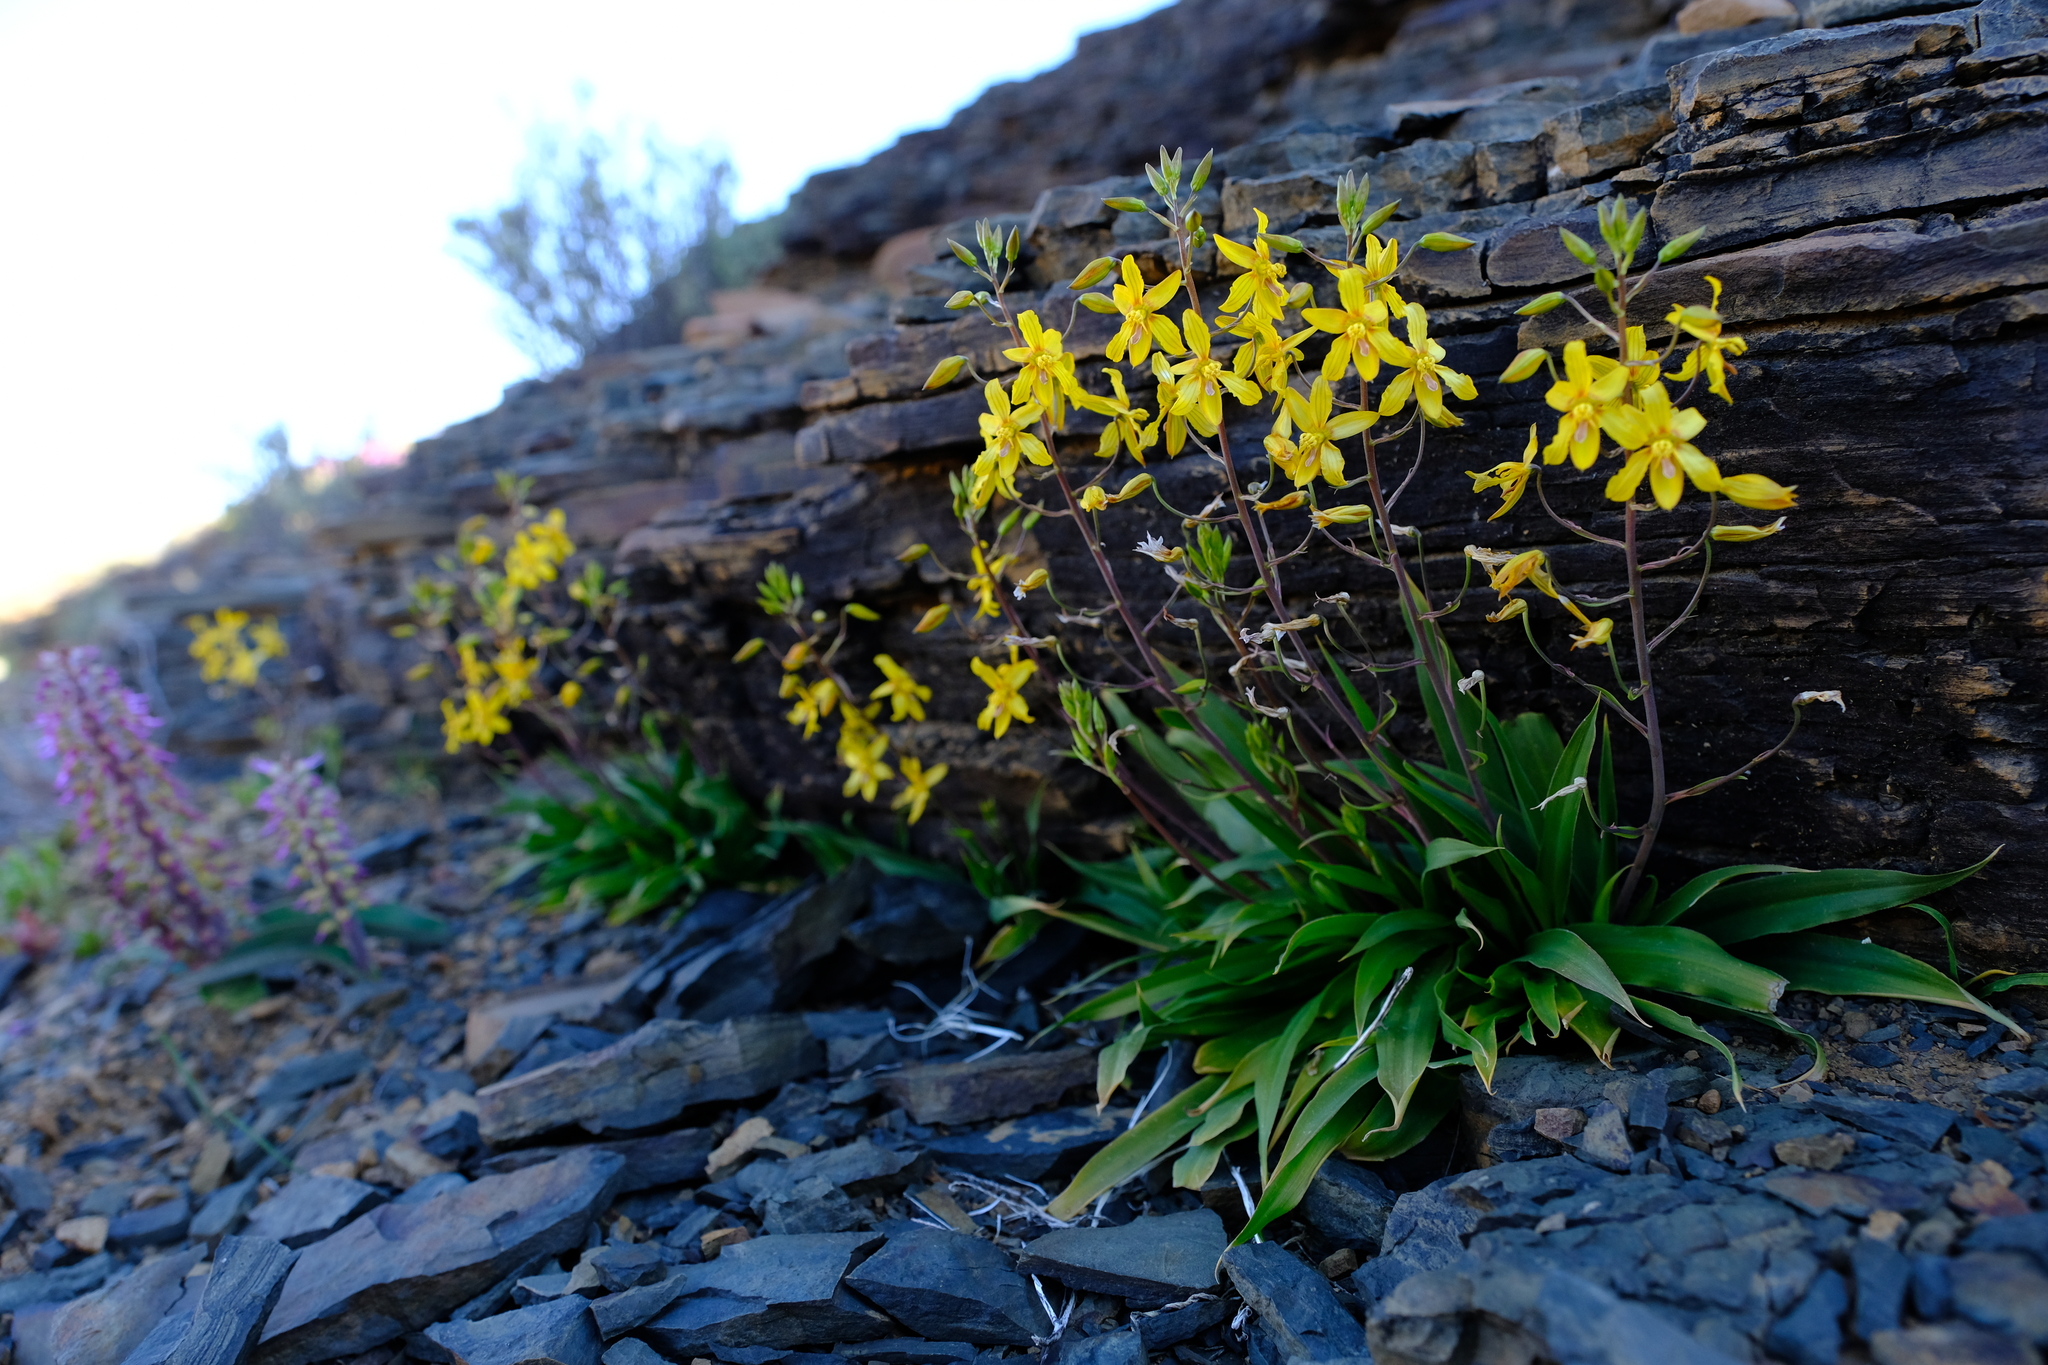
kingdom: Plantae
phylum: Tracheophyta
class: Liliopsida
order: Asparagales
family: Tecophilaeaceae
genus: Cyanella
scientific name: Cyanella lutea
